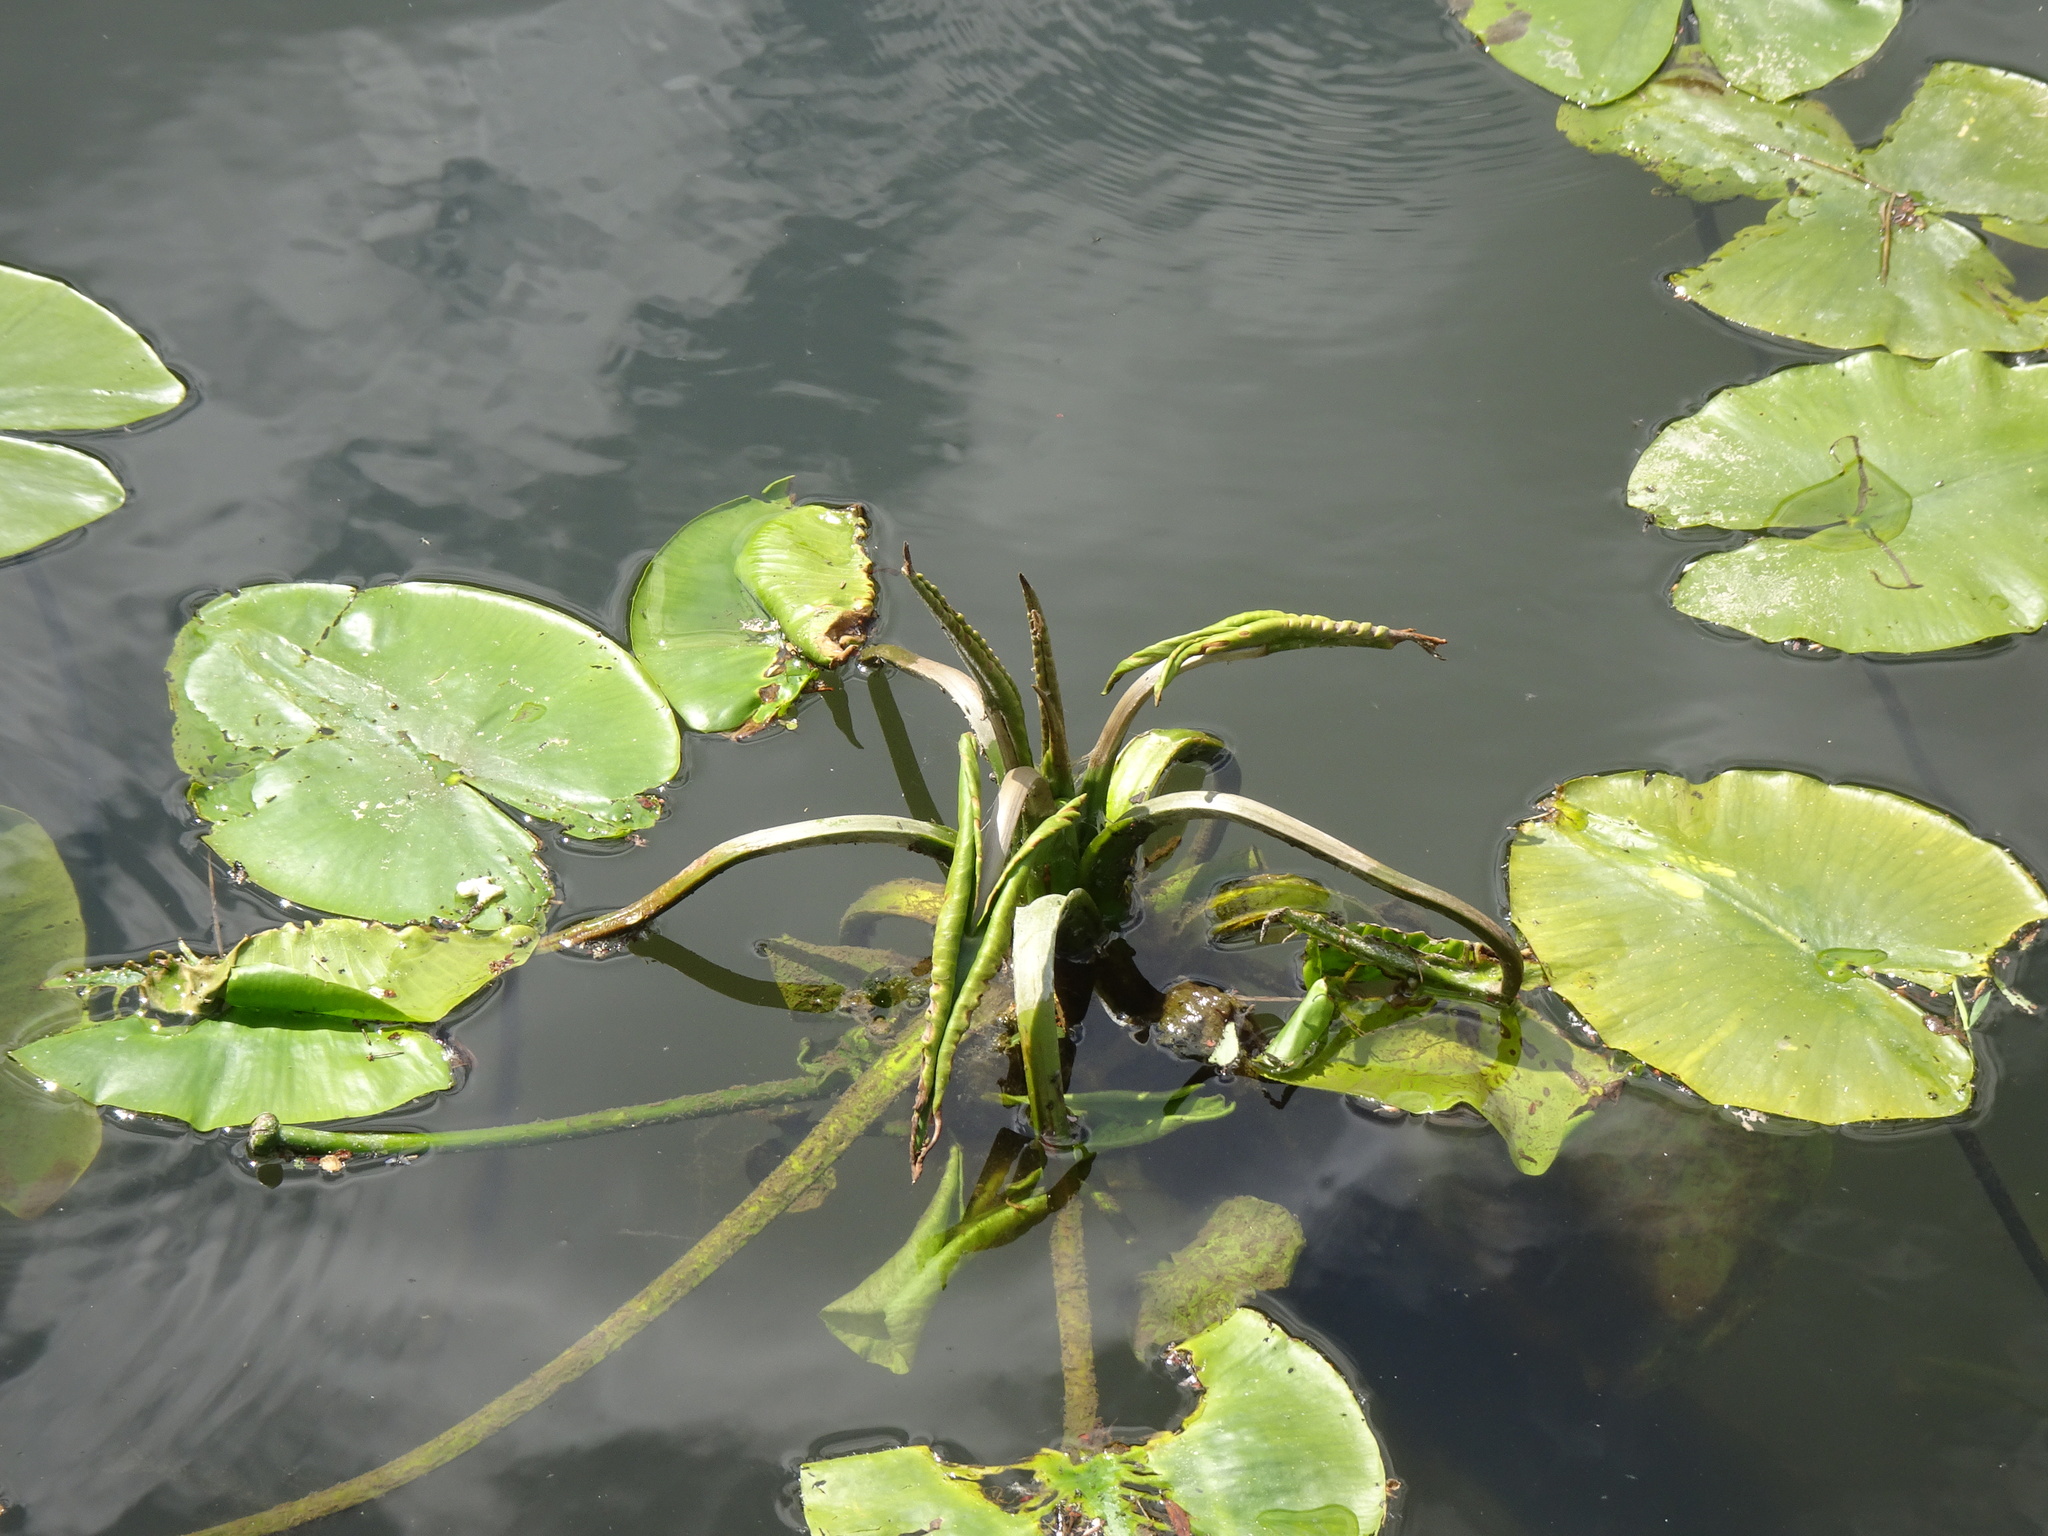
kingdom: Plantae
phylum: Tracheophyta
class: Magnoliopsida
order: Nymphaeales
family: Nymphaeaceae
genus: Nuphar
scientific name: Nuphar lutea
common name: Yellow water-lily
